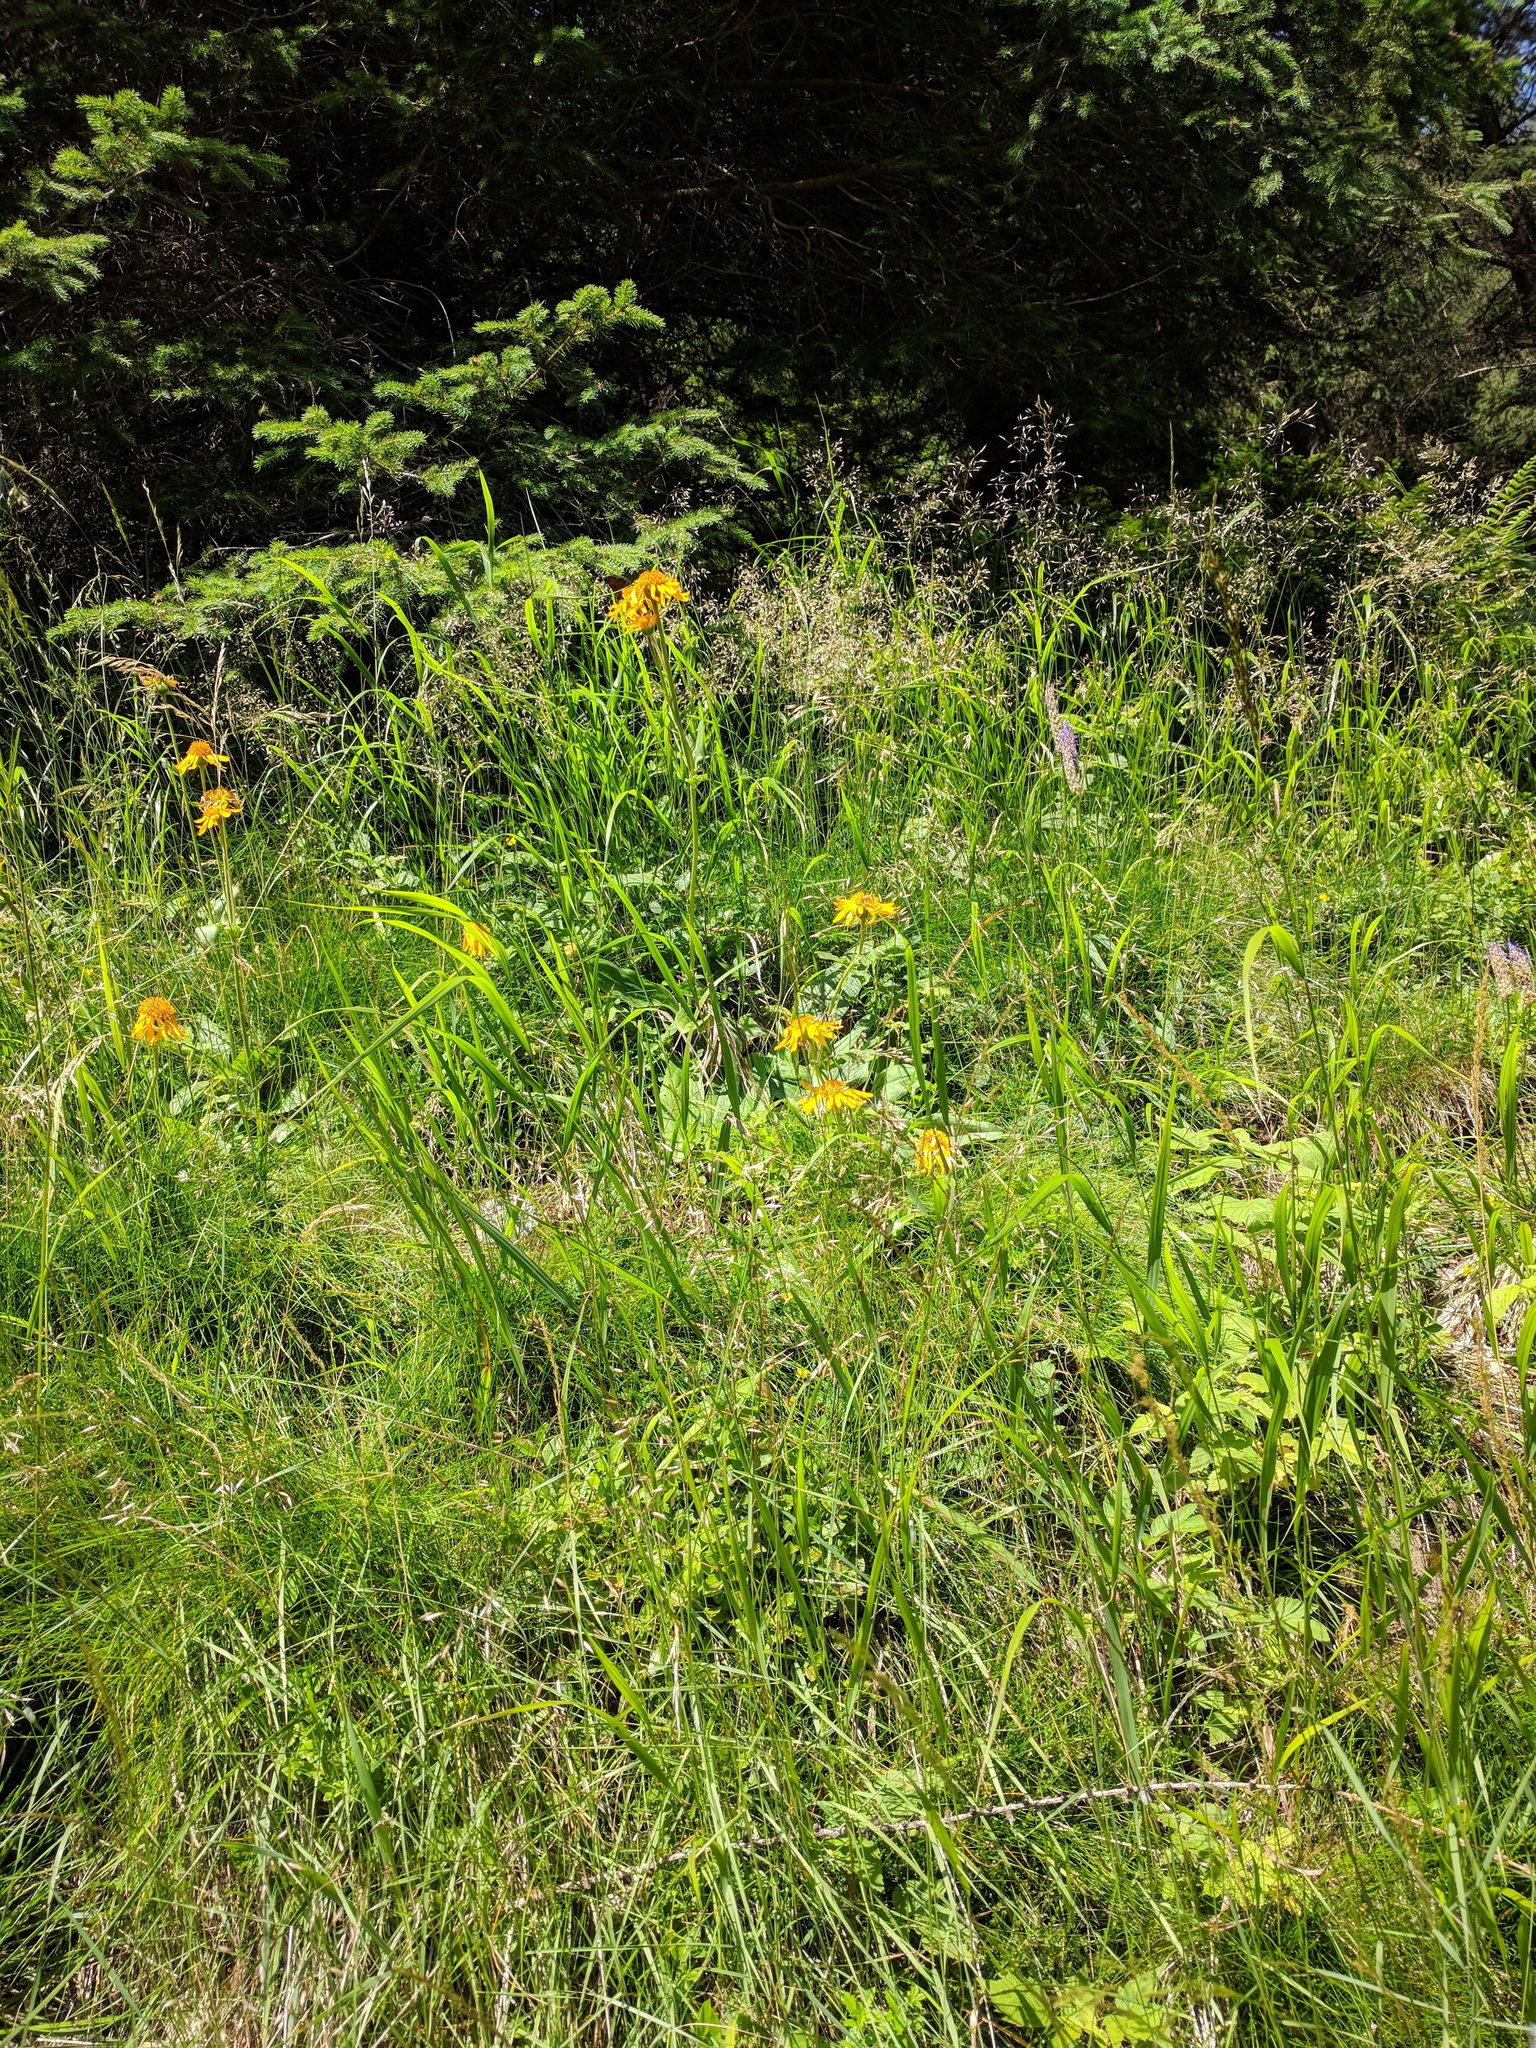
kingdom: Plantae
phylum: Tracheophyta
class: Magnoliopsida
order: Asterales
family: Asteraceae
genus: Arnica
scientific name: Arnica montana
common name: Leopard's bane
